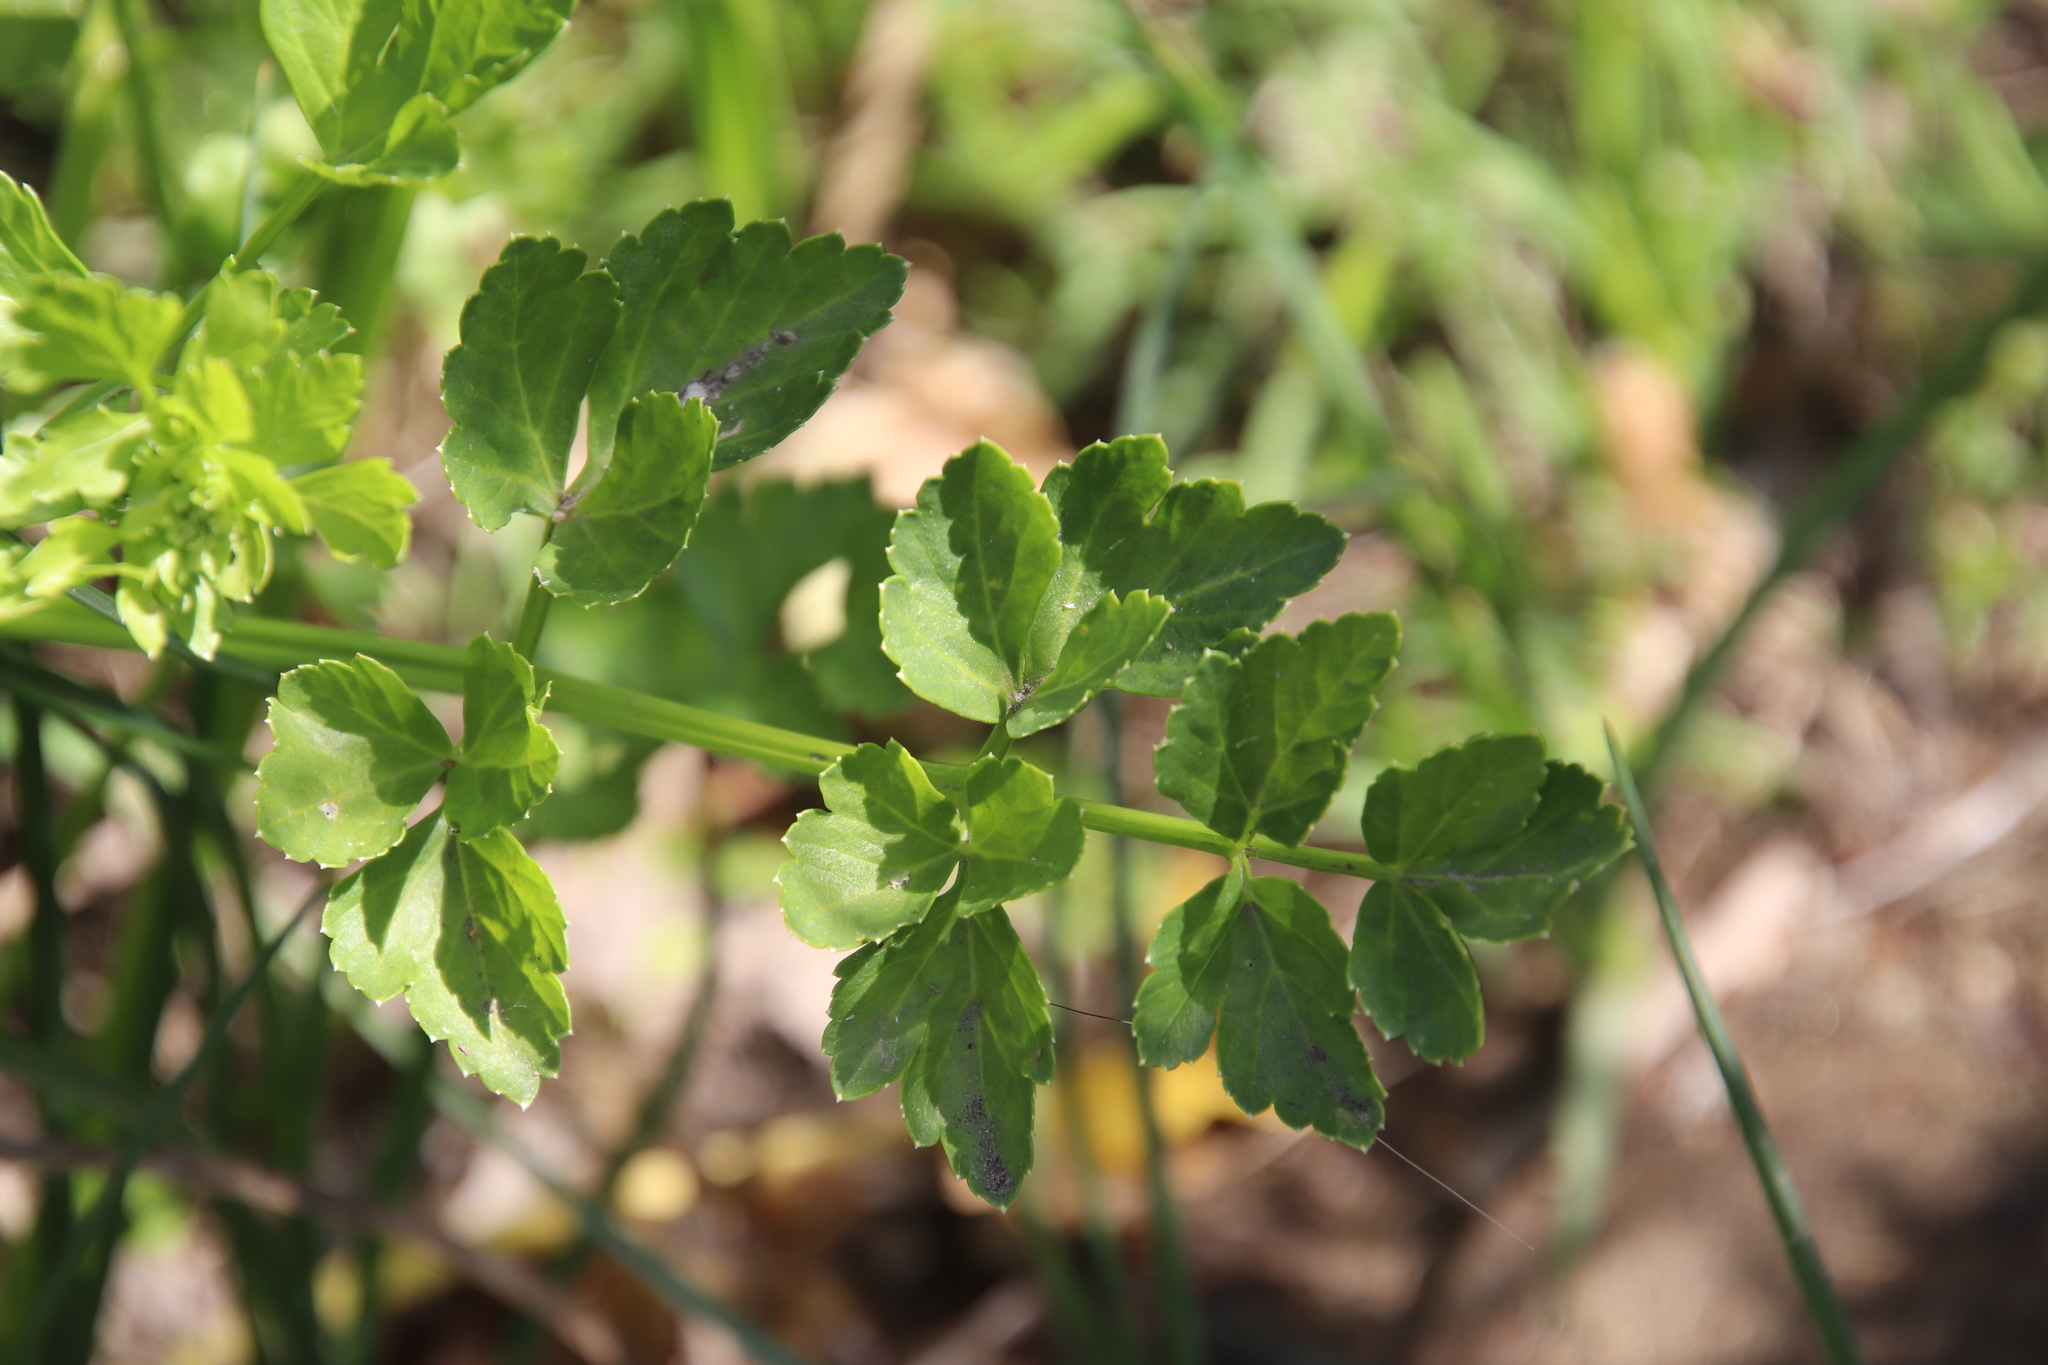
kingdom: Plantae
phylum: Tracheophyta
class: Magnoliopsida
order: Apiales
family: Apiaceae
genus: Apium
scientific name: Apium graveolens
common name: Wild celery
